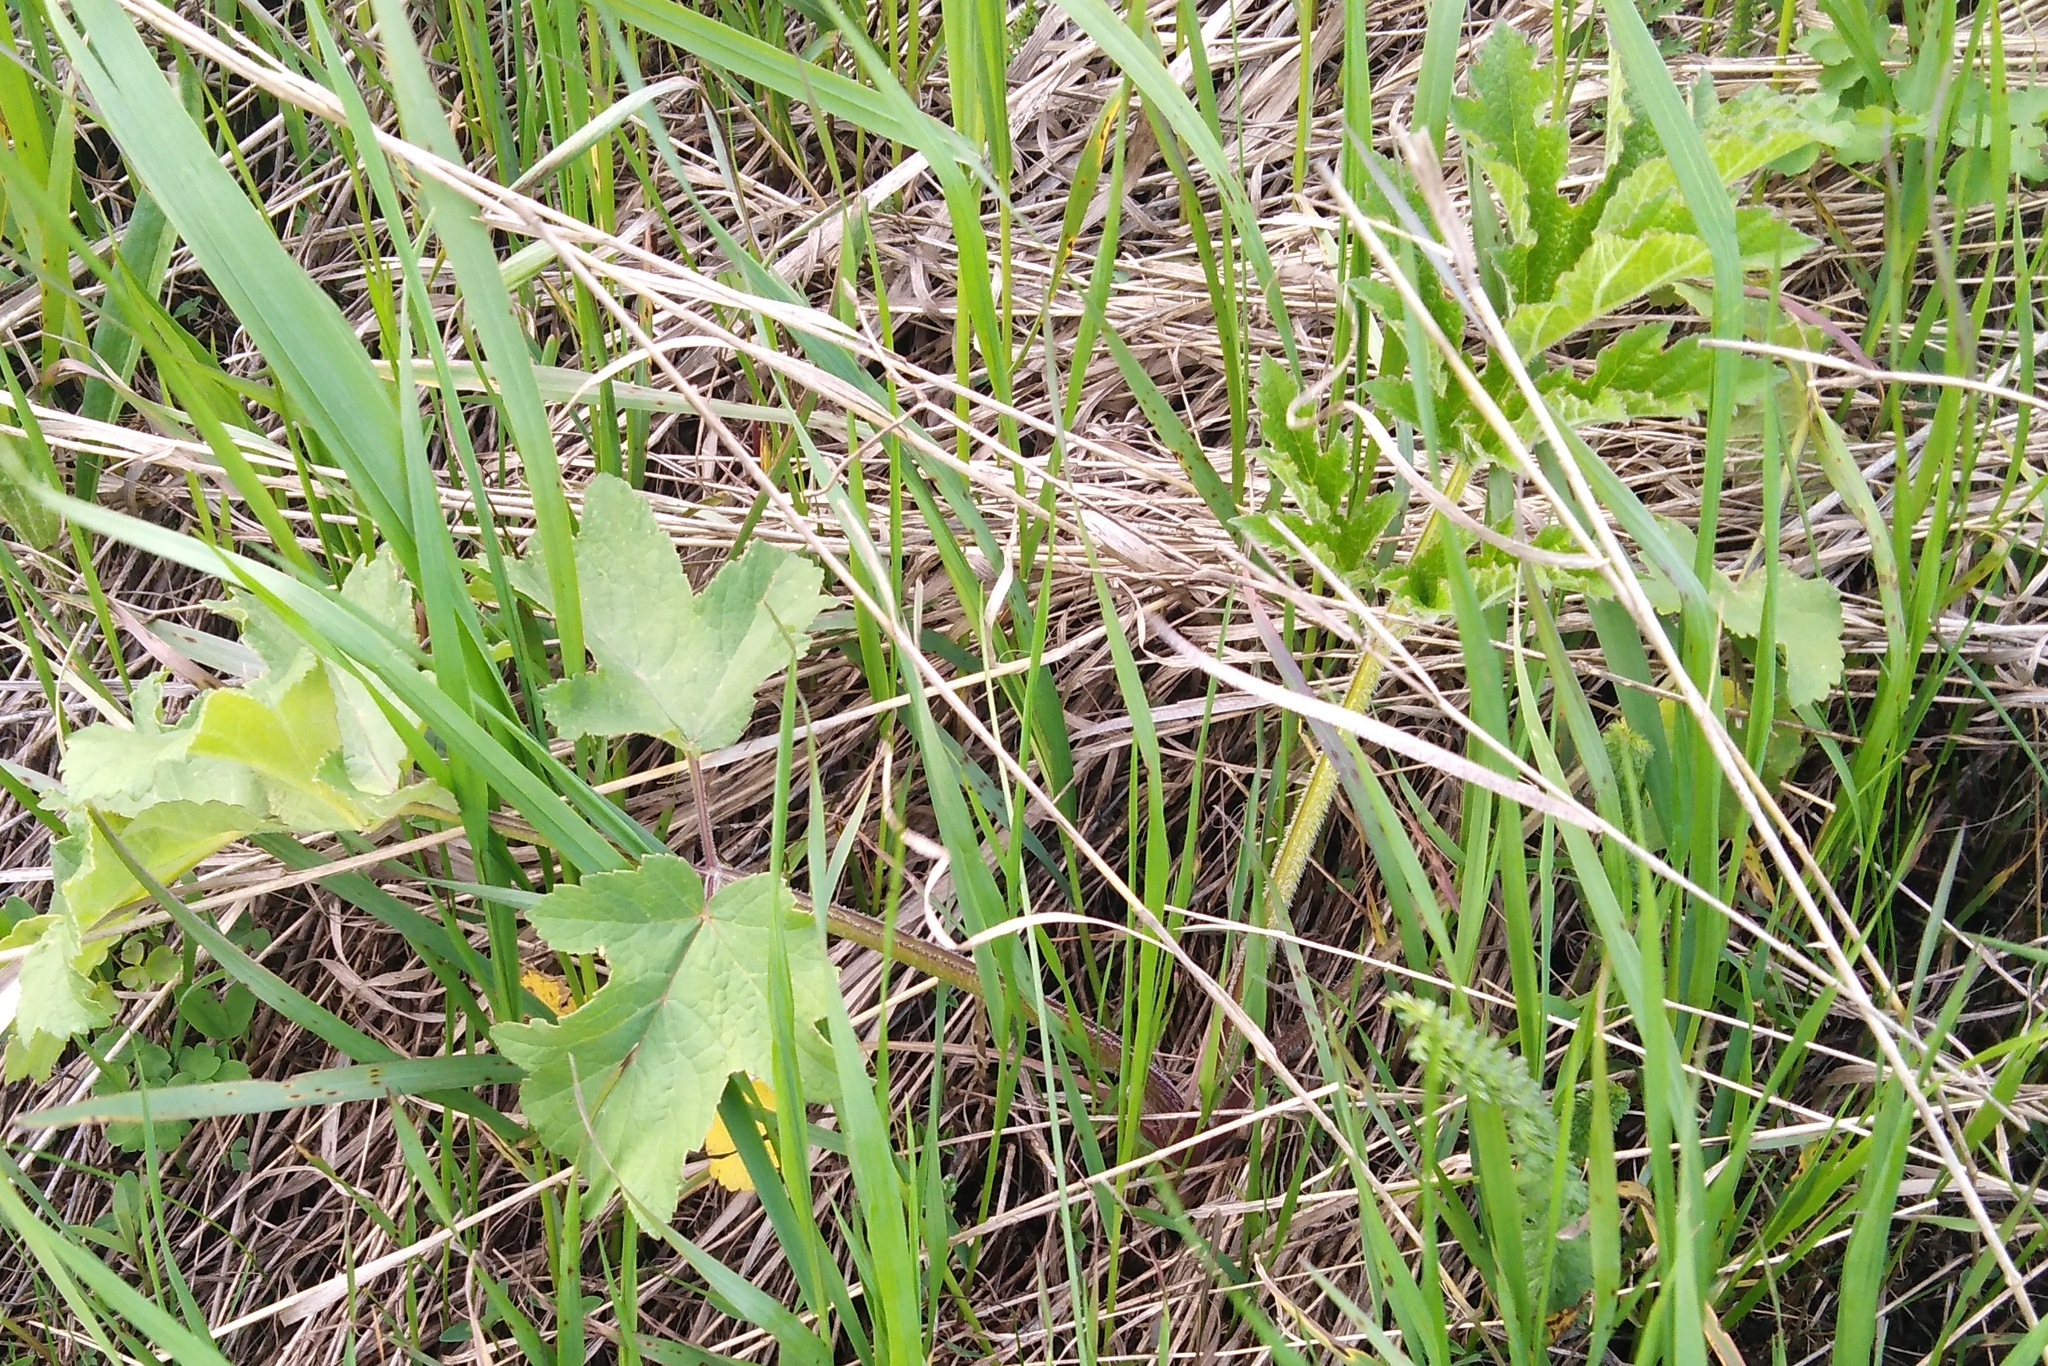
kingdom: Plantae
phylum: Tracheophyta
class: Magnoliopsida
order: Apiales
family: Apiaceae
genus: Heracleum
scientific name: Heracleum sphondylium
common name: Hogweed
